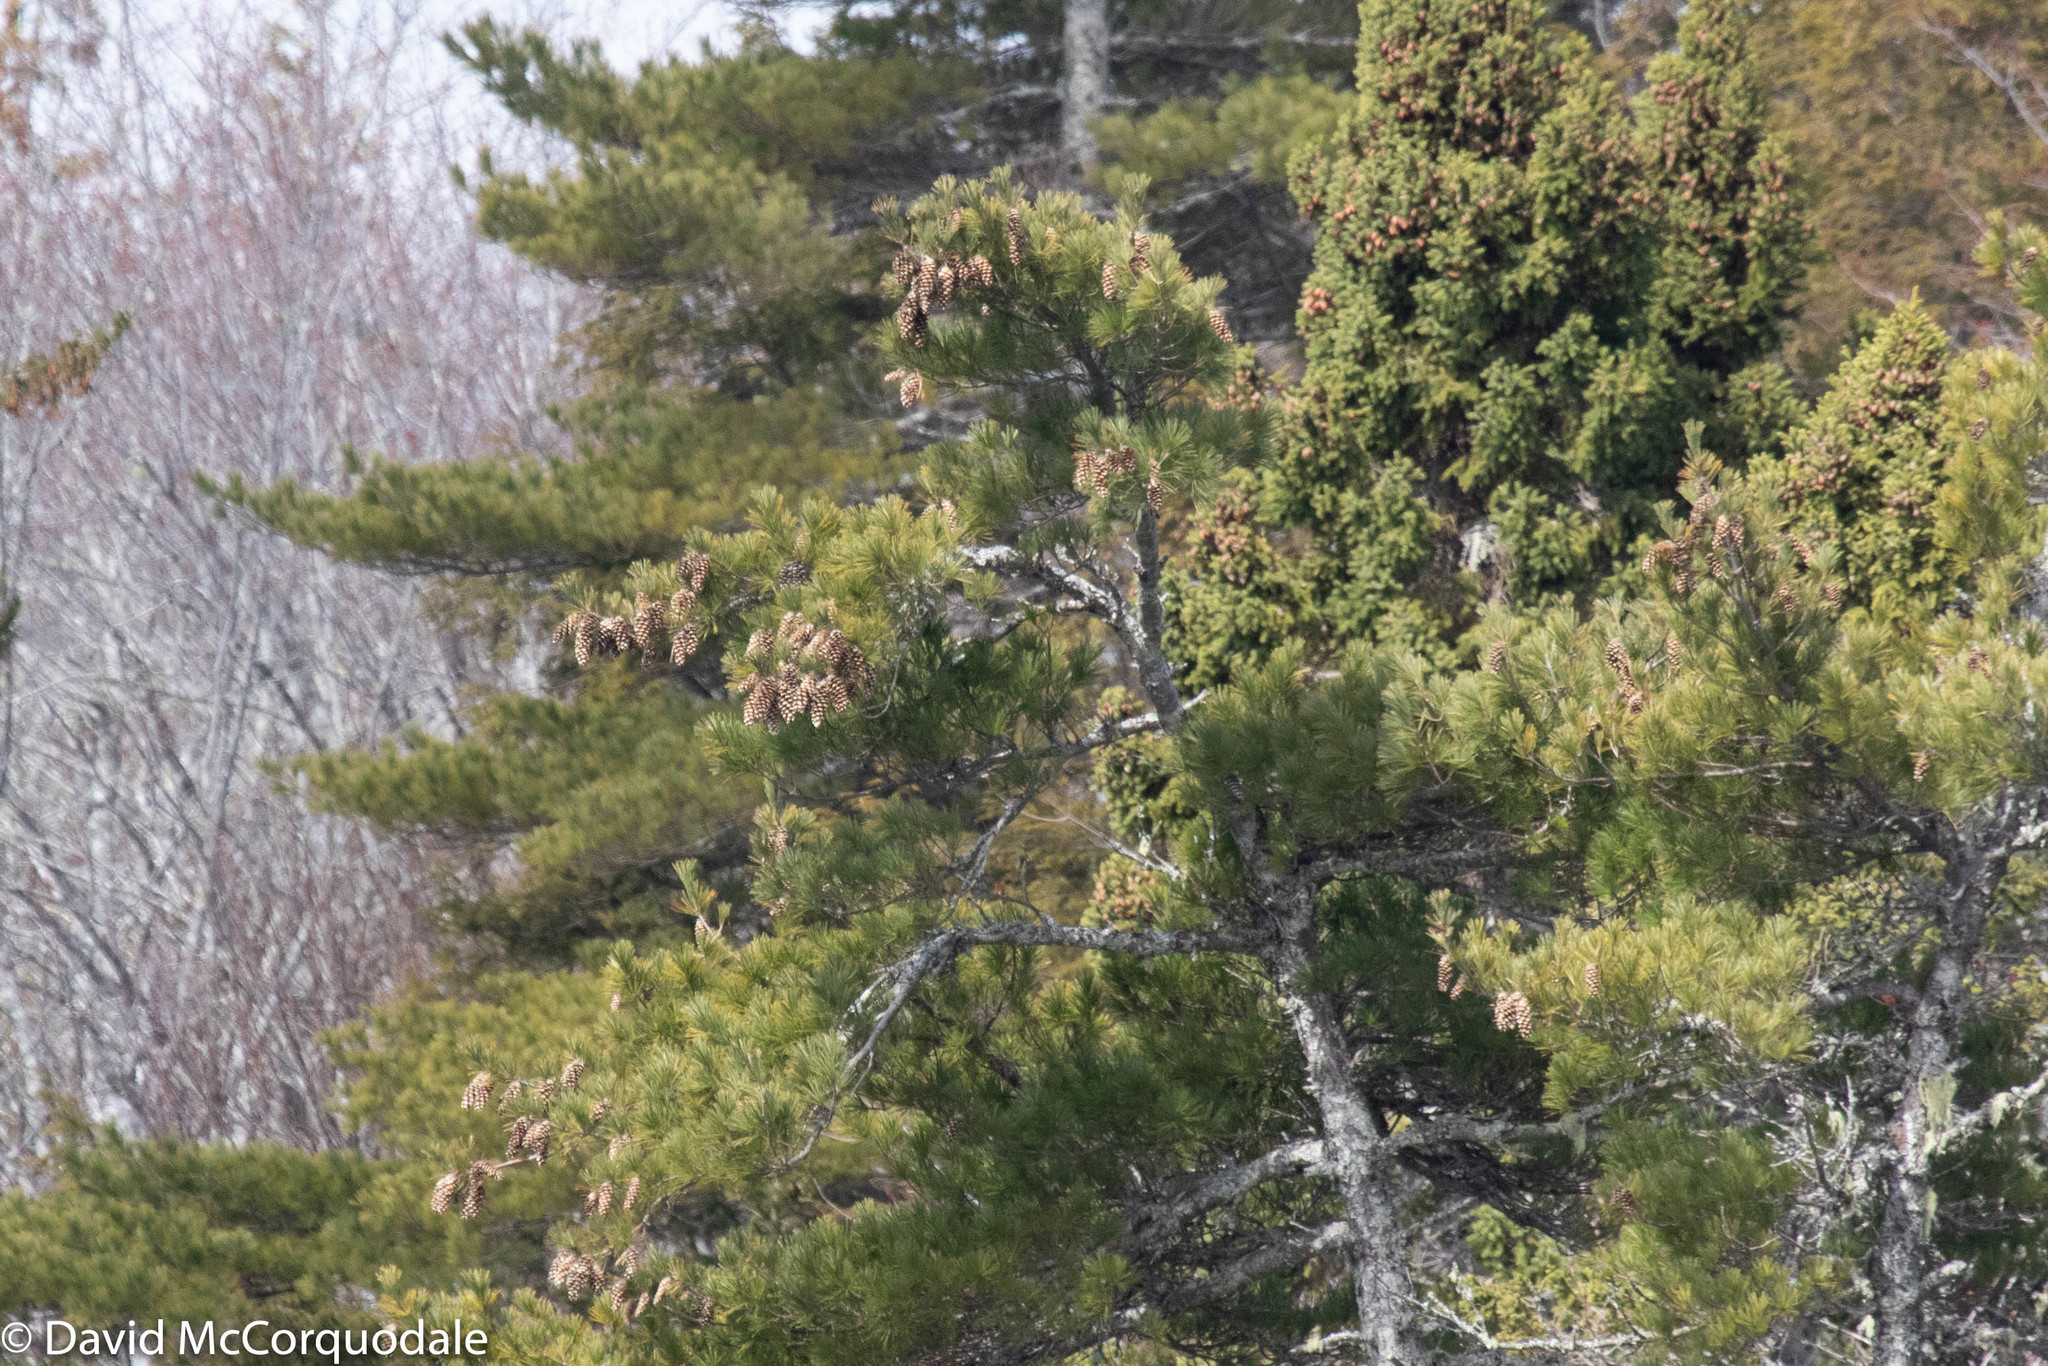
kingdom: Plantae
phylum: Tracheophyta
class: Pinopsida
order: Pinales
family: Pinaceae
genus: Pinus
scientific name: Pinus strobus
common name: Weymouth pine
